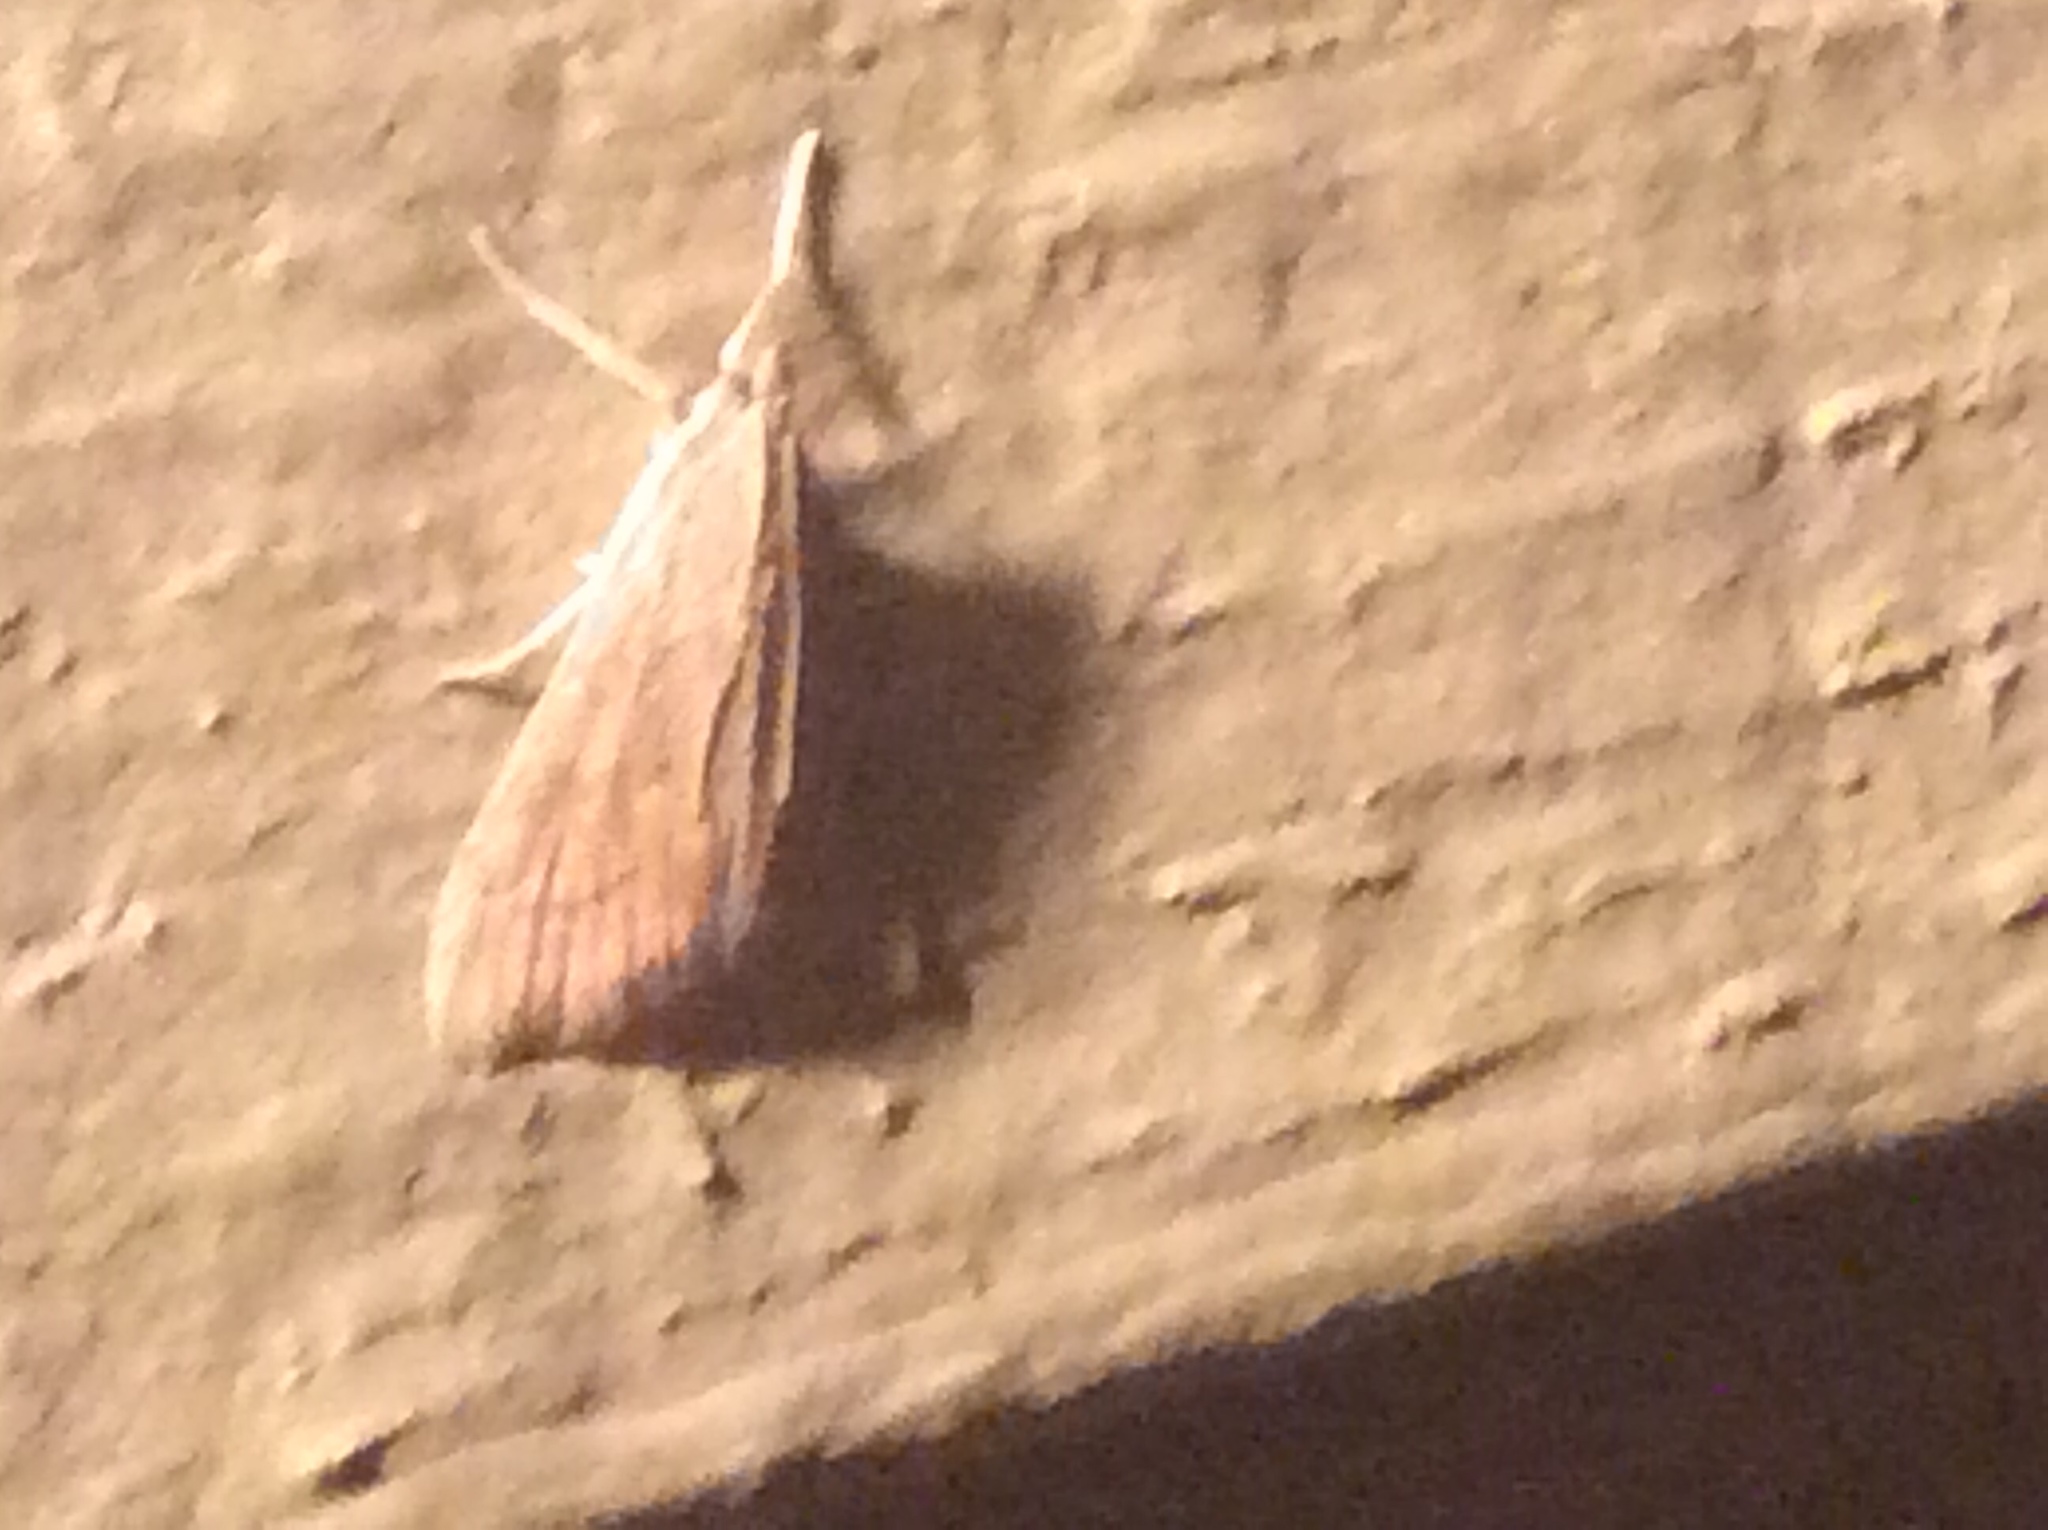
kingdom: Animalia
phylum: Arthropoda
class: Insecta
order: Lepidoptera
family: Crambidae
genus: Udea
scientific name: Udea rubigalis
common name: Celery leaftier moth
